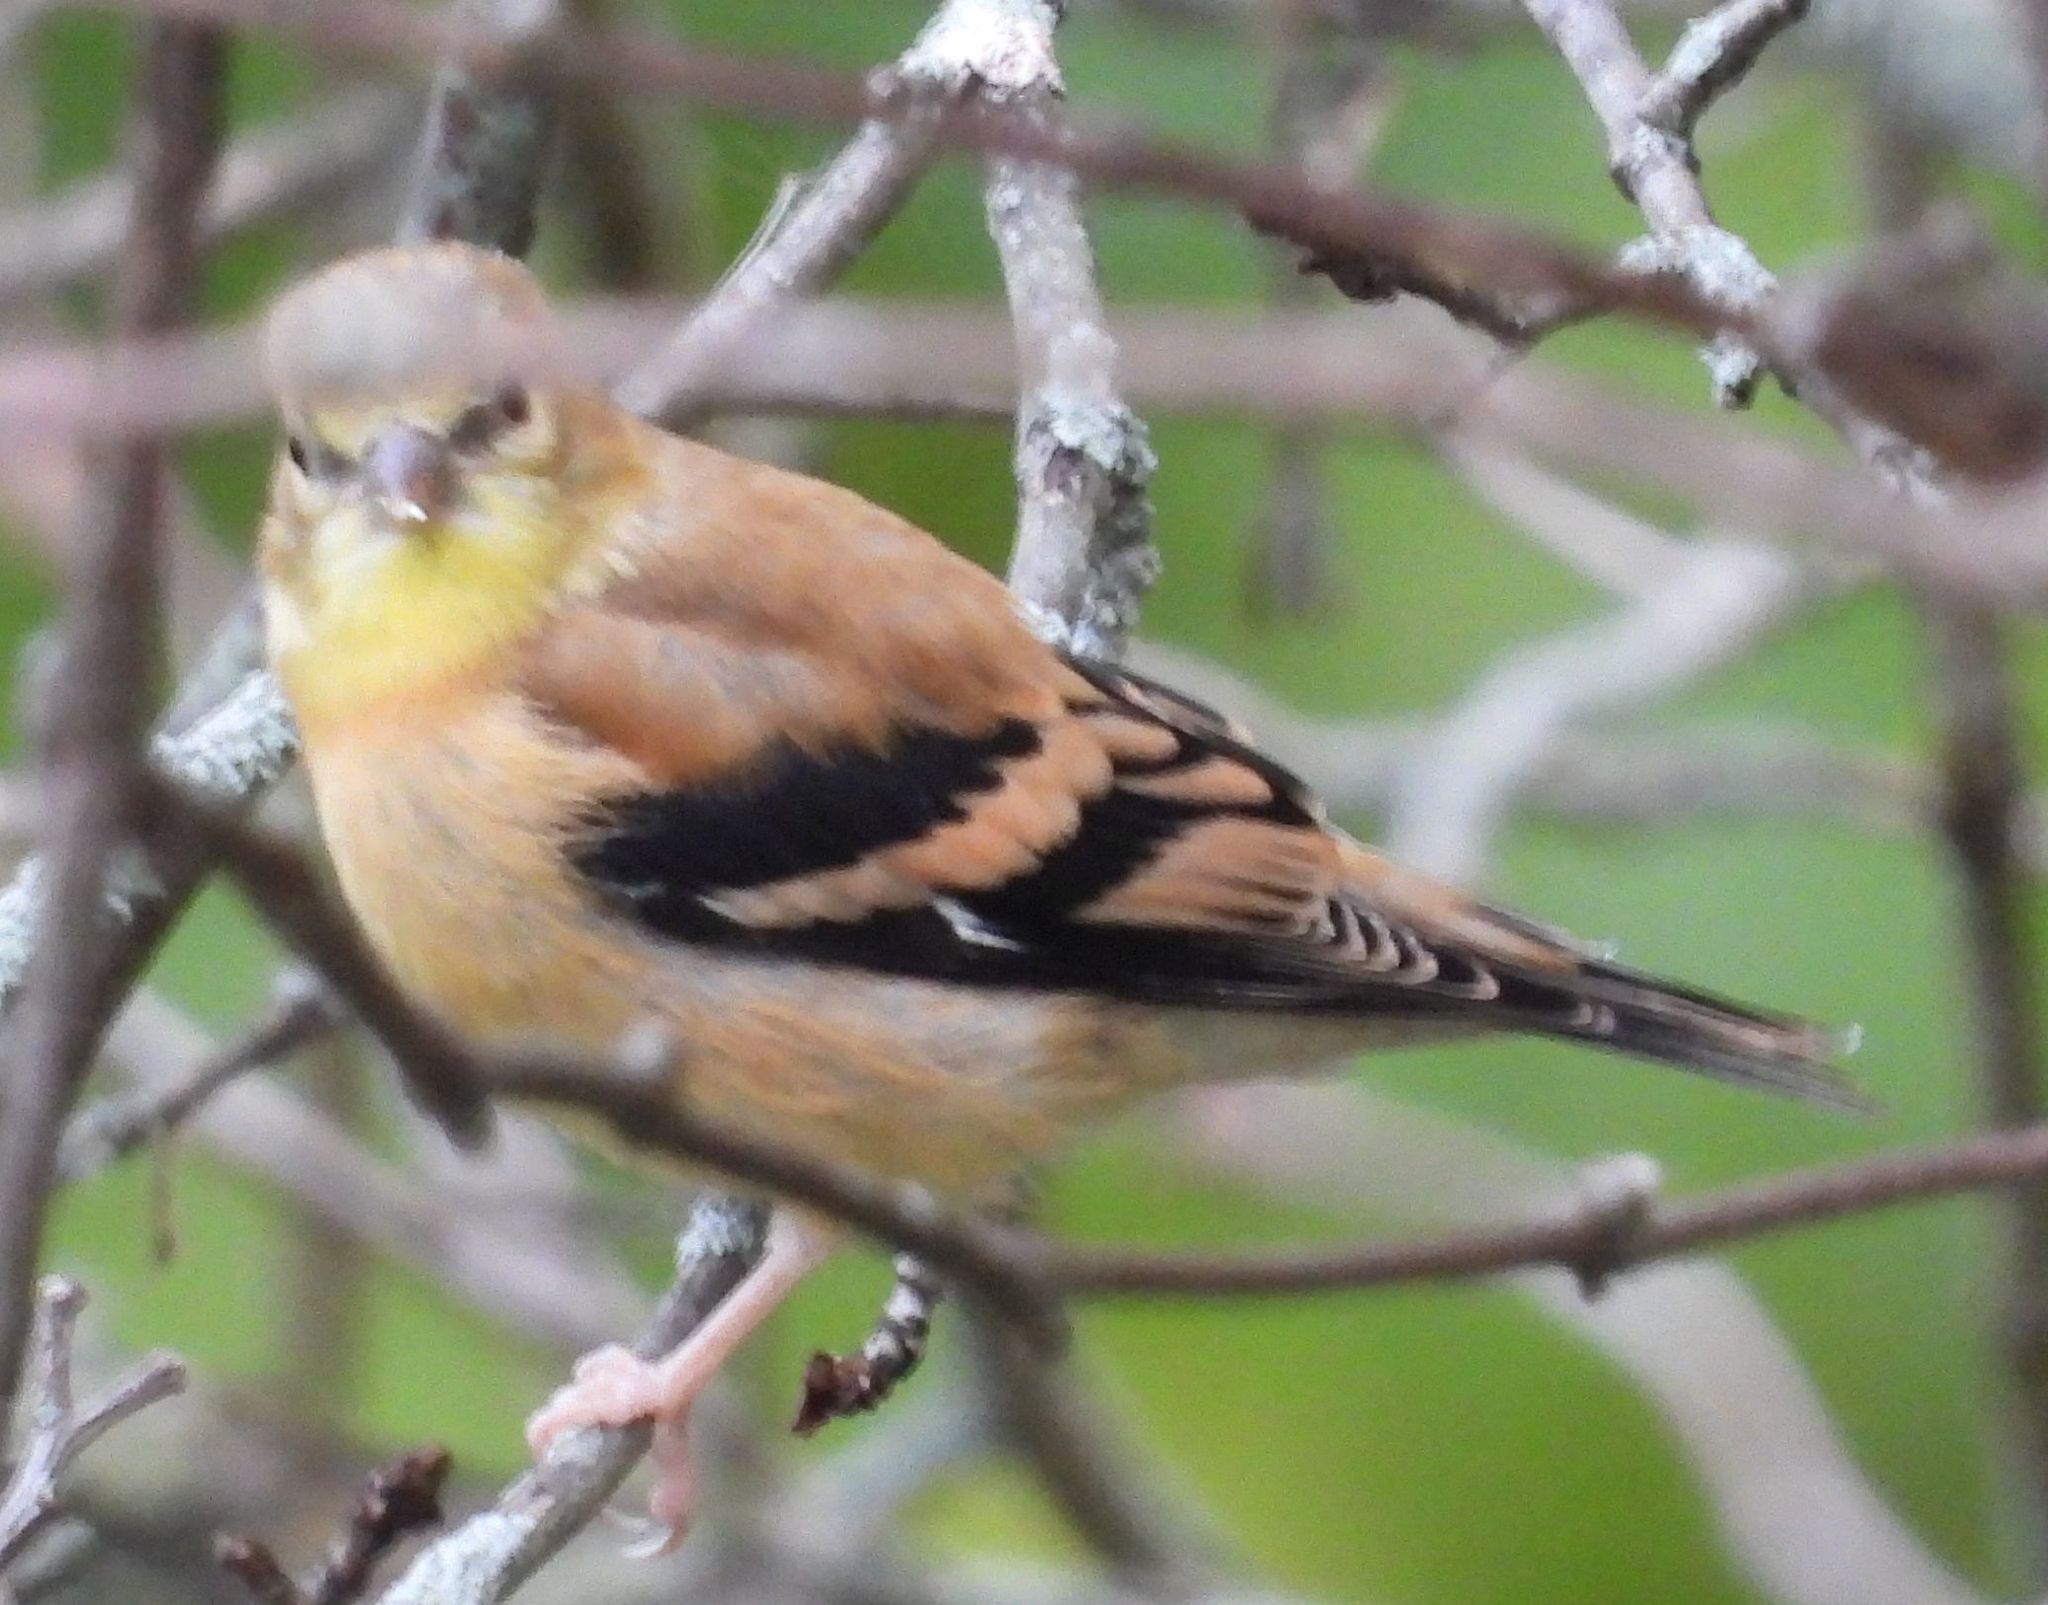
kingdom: Animalia
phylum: Chordata
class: Aves
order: Passeriformes
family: Fringillidae
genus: Spinus
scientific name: Spinus tristis
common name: American goldfinch
